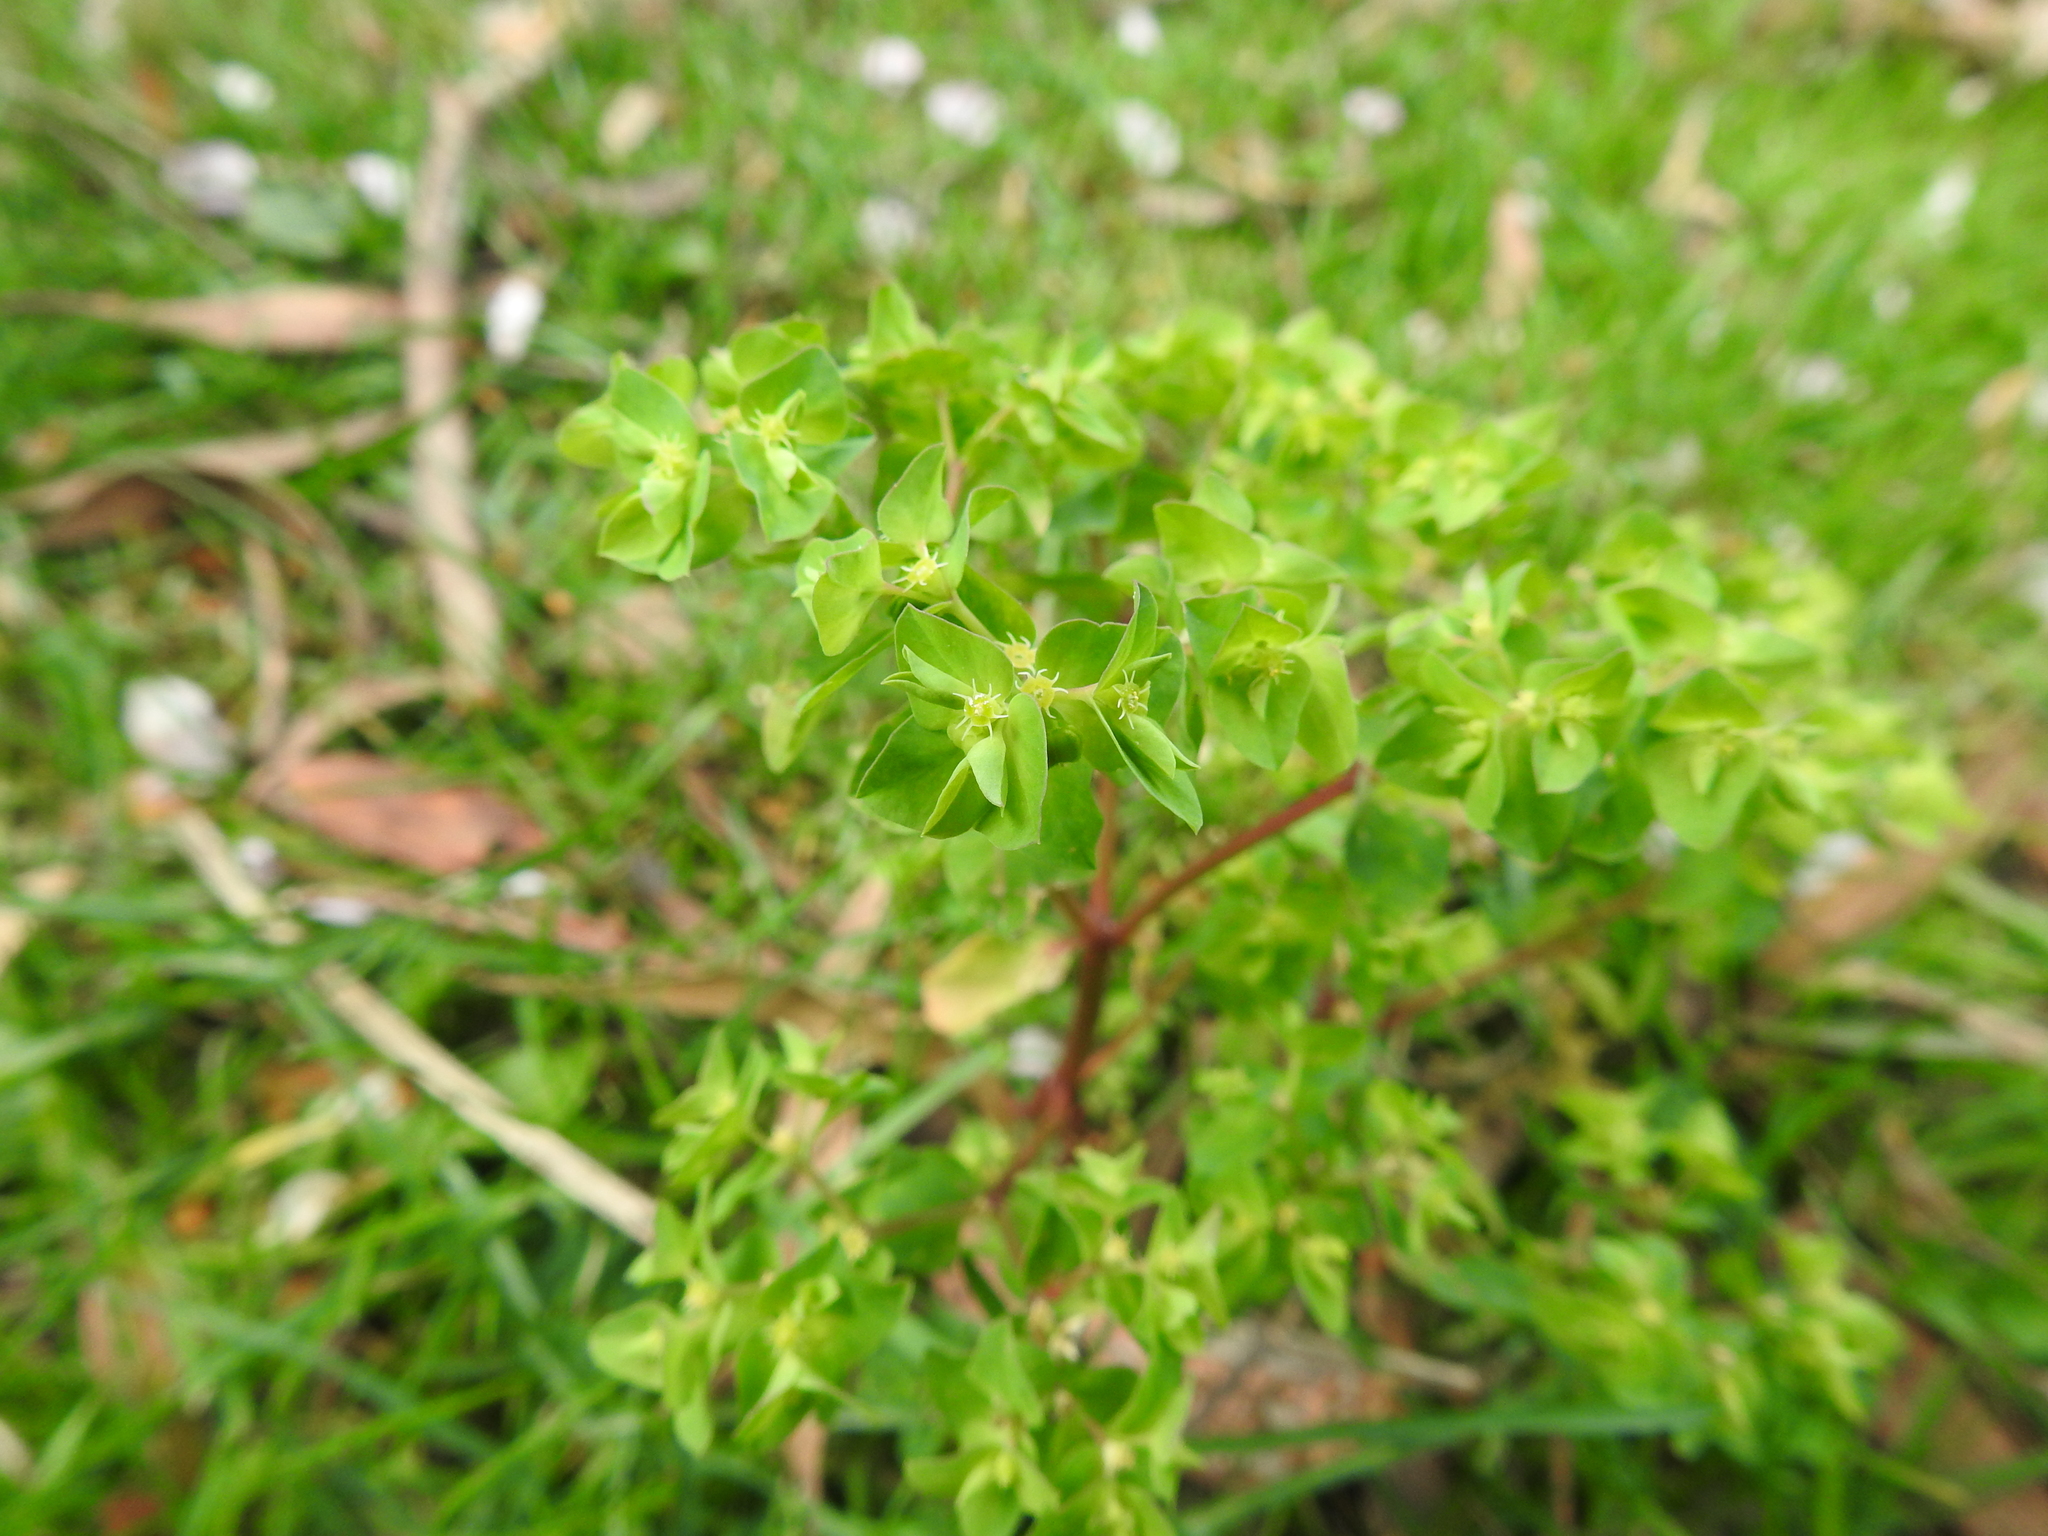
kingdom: Plantae
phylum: Tracheophyta
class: Magnoliopsida
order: Malpighiales
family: Euphorbiaceae
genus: Euphorbia
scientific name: Euphorbia peplus
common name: Petty spurge
